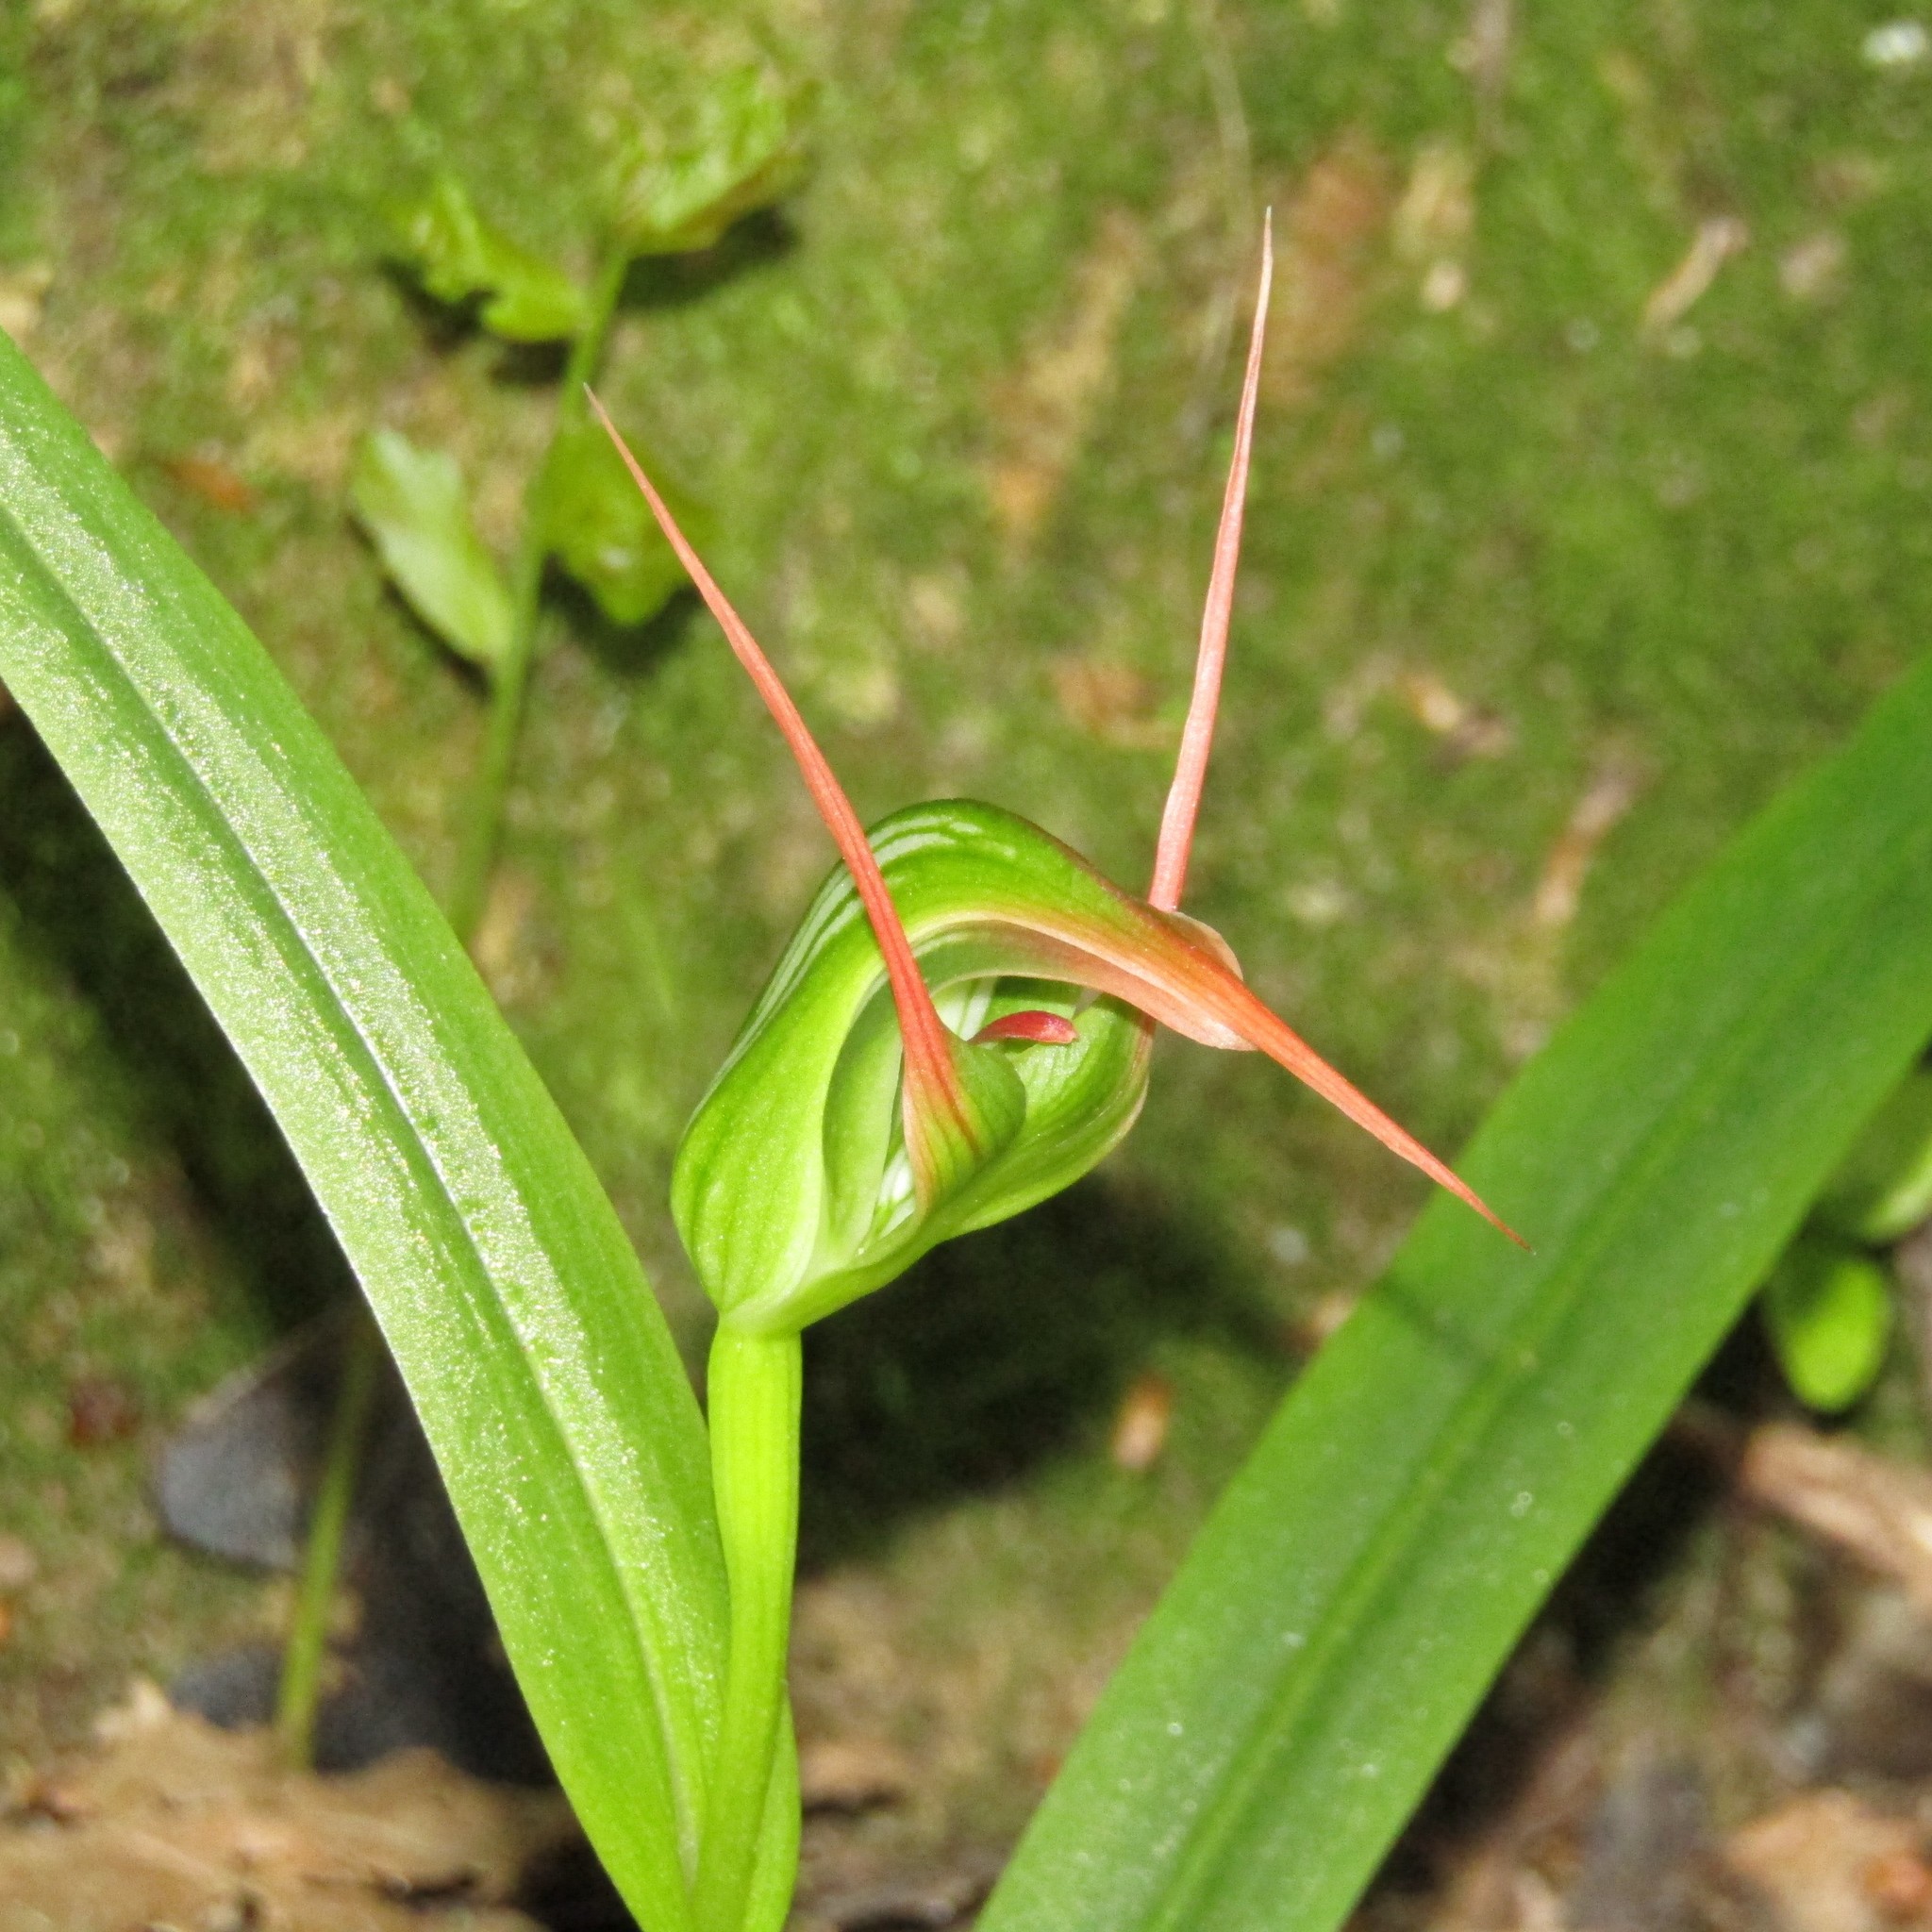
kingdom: Plantae
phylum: Tracheophyta
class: Liliopsida
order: Asparagales
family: Orchidaceae
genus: Pterostylis
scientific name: Pterostylis banksii
